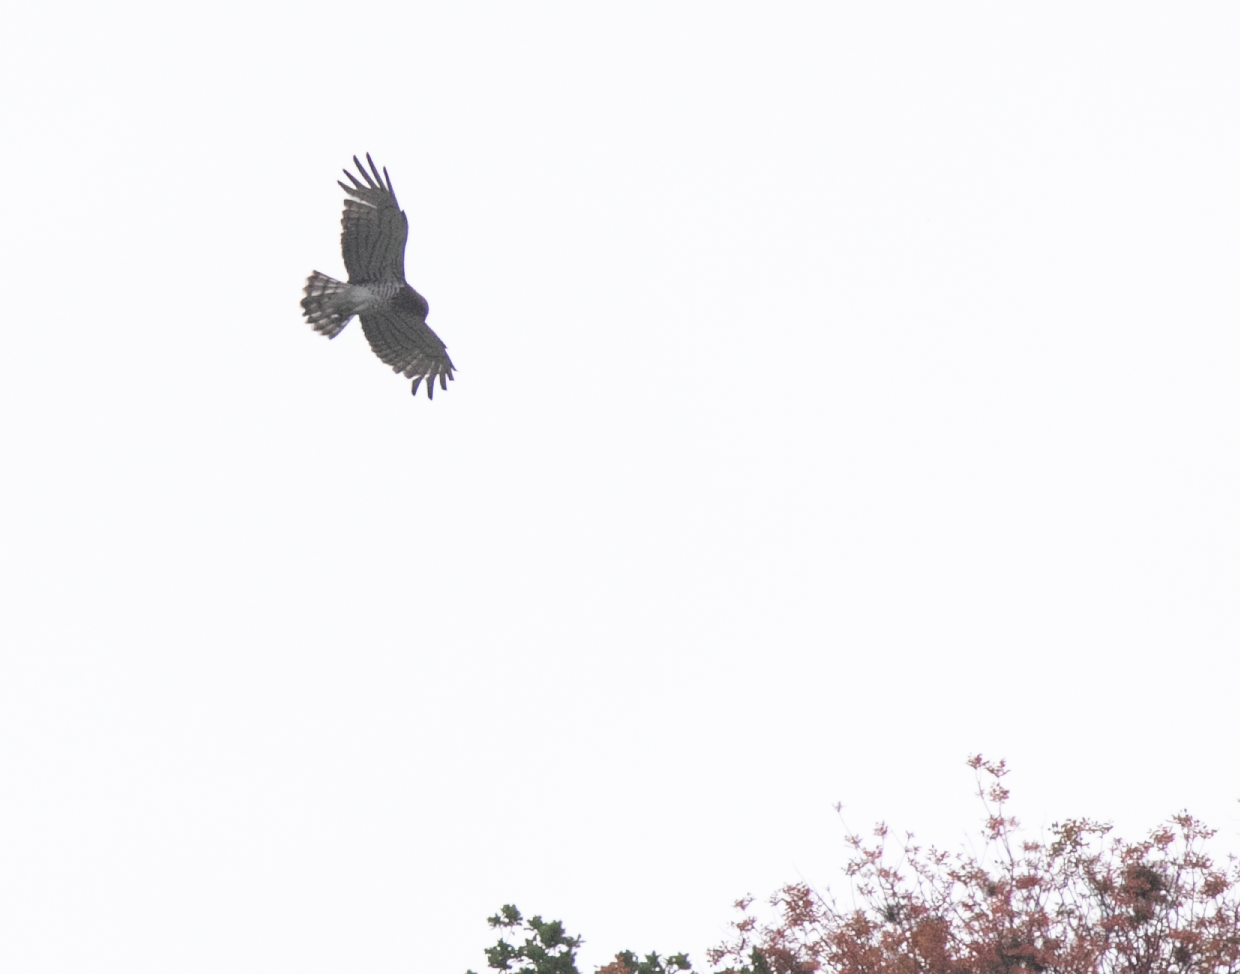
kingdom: Animalia
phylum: Chordata
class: Aves
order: Accipitriformes
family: Accipitridae
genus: Circaetus
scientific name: Circaetus gallicus
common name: Short-toed snake eagle
